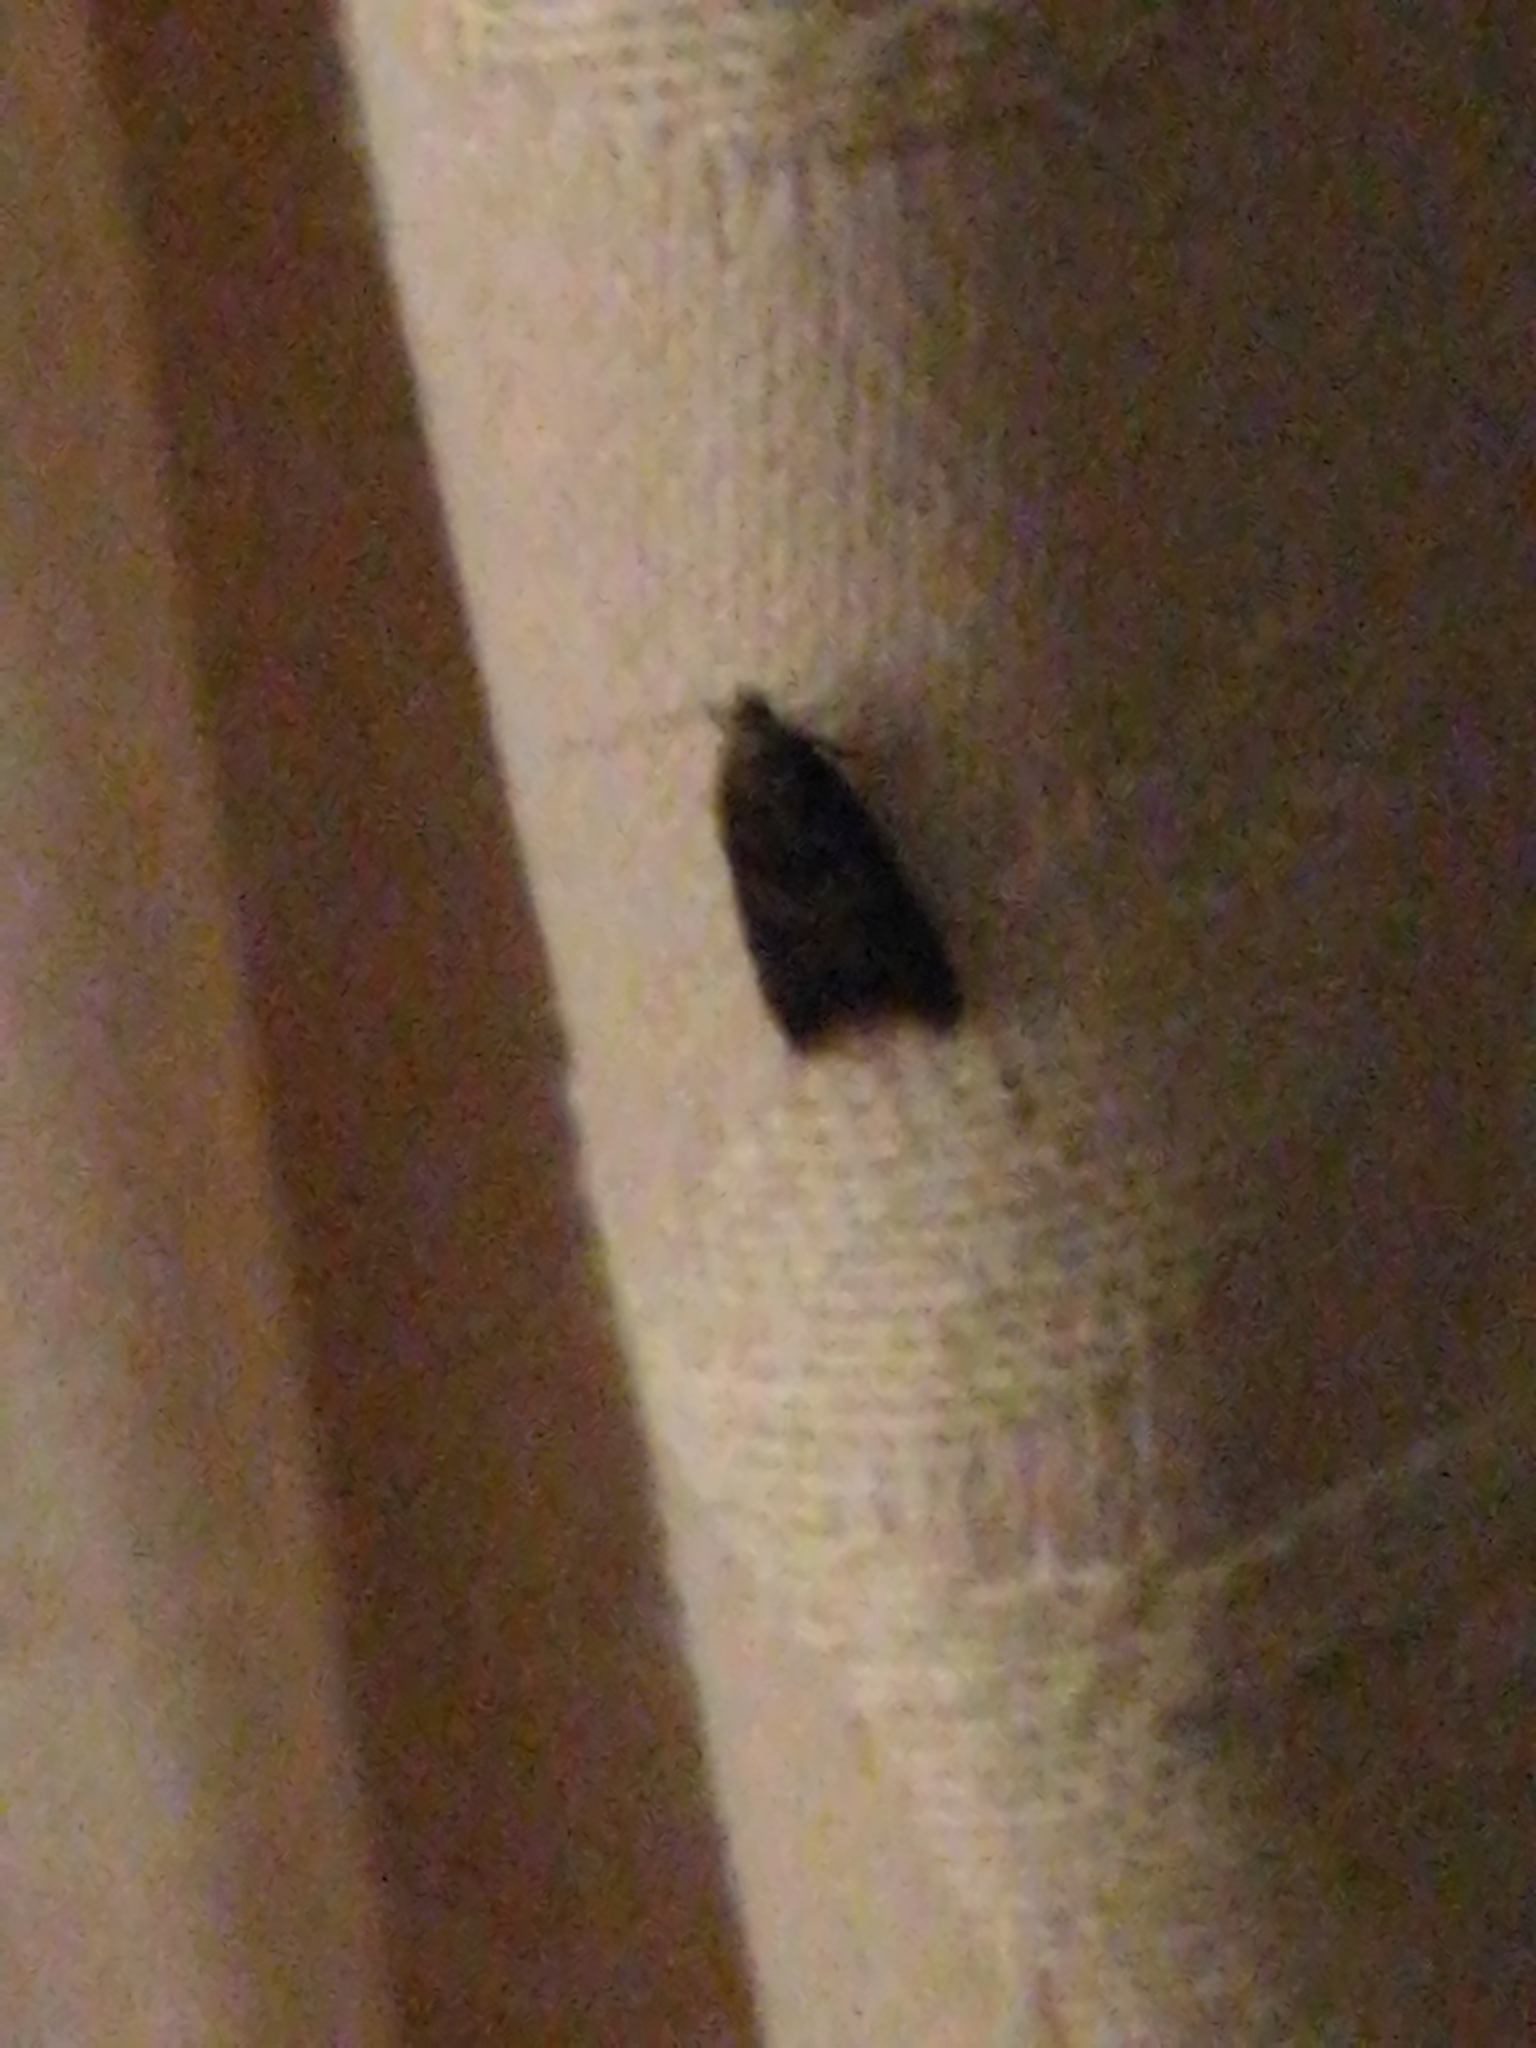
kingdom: Animalia
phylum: Arthropoda
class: Insecta
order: Lepidoptera
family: Oecophoridae
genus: Tachystola
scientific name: Tachystola acroxantha
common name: Ruddy streak
